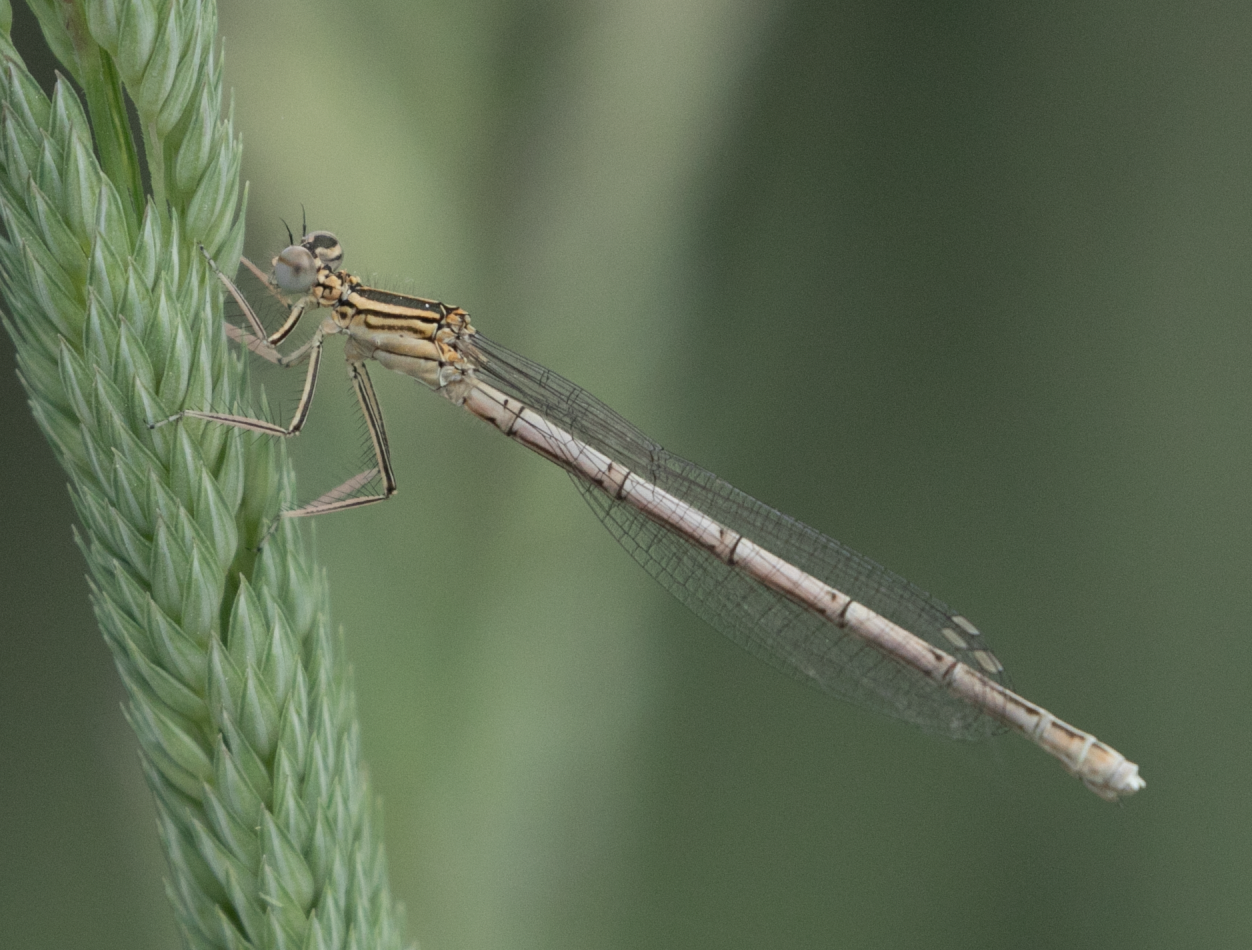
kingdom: Animalia
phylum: Arthropoda
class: Insecta
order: Odonata
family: Platycnemididae
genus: Platycnemis
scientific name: Platycnemis pennipes
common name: White-legged damselfly
